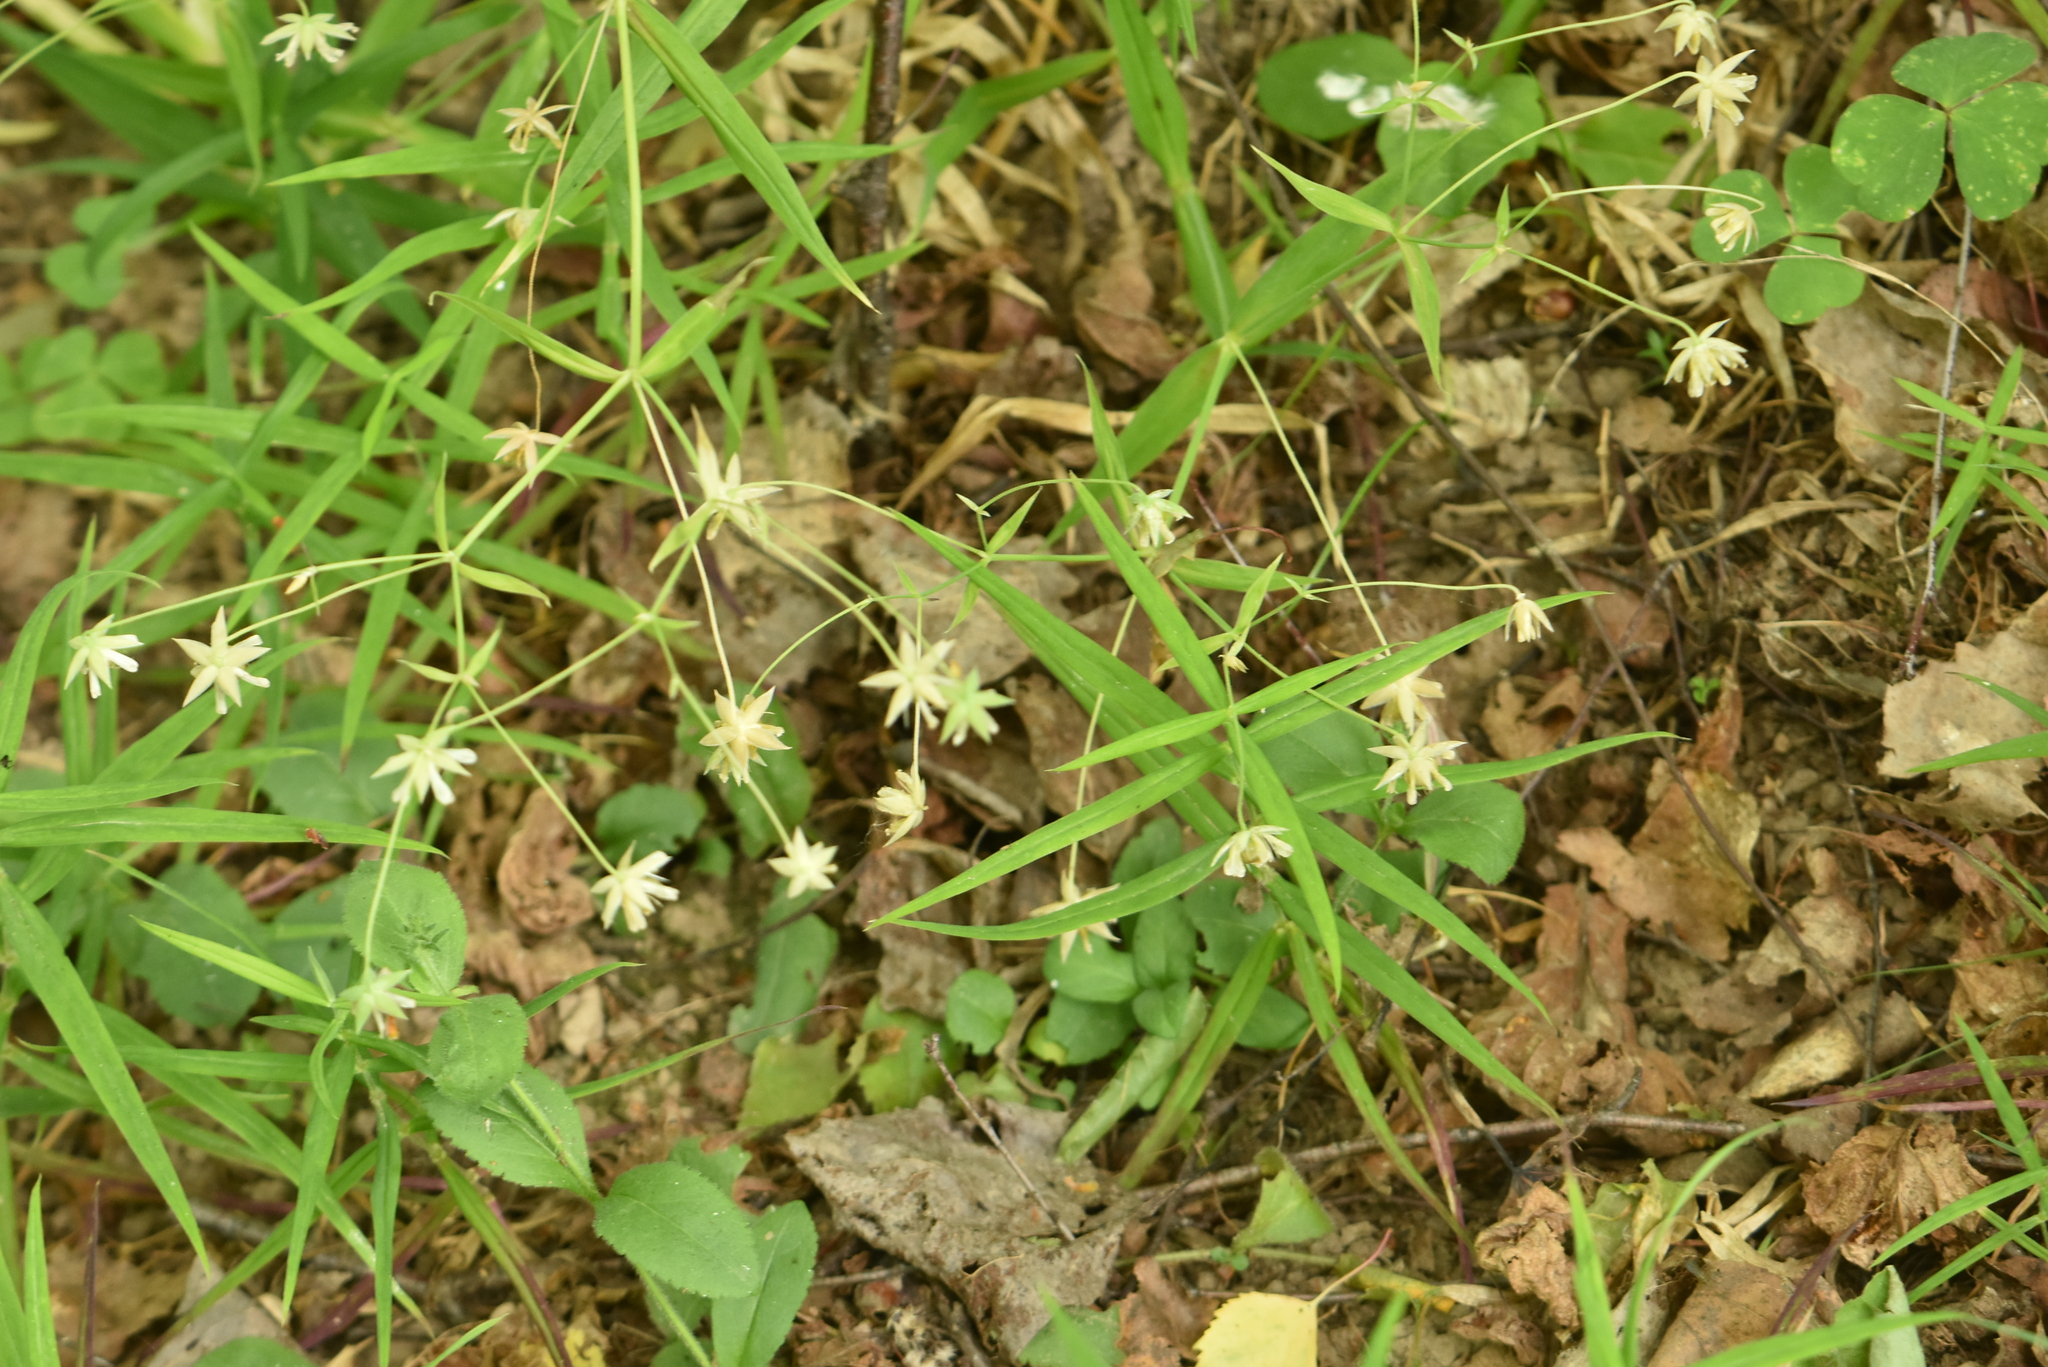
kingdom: Plantae
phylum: Tracheophyta
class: Magnoliopsida
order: Caryophyllales
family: Caryophyllaceae
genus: Rabelera
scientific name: Rabelera holostea
